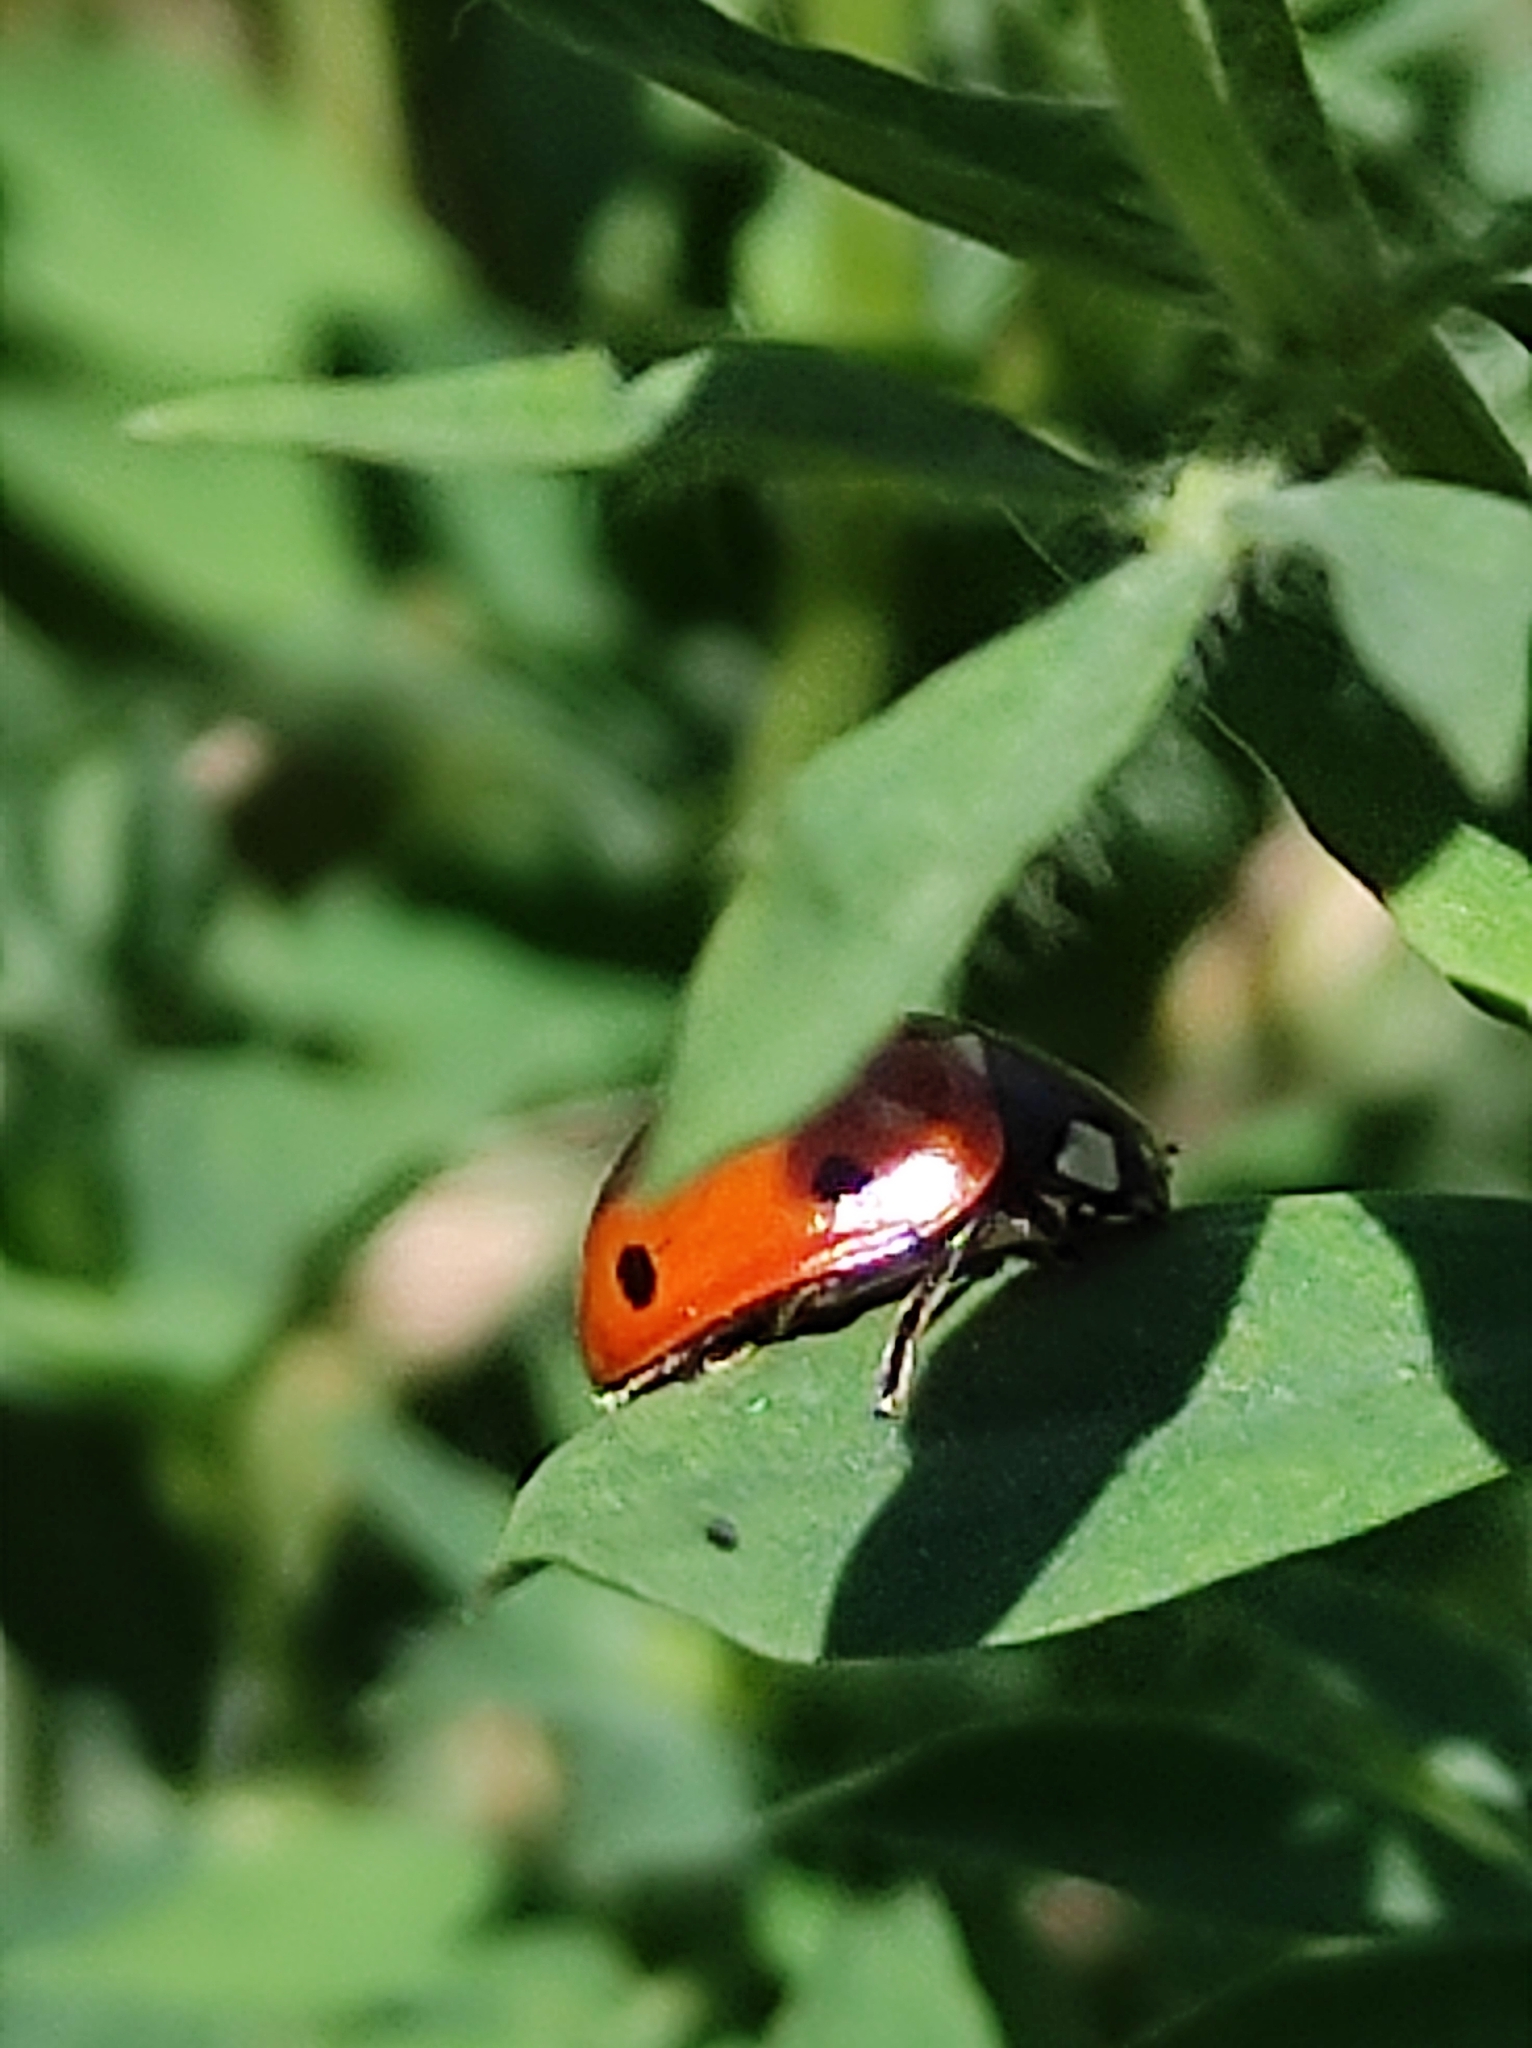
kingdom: Animalia
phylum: Arthropoda
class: Insecta
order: Coleoptera
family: Coccinellidae
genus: Coccinella
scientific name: Coccinella septempunctata
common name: Sevenspotted lady beetle
